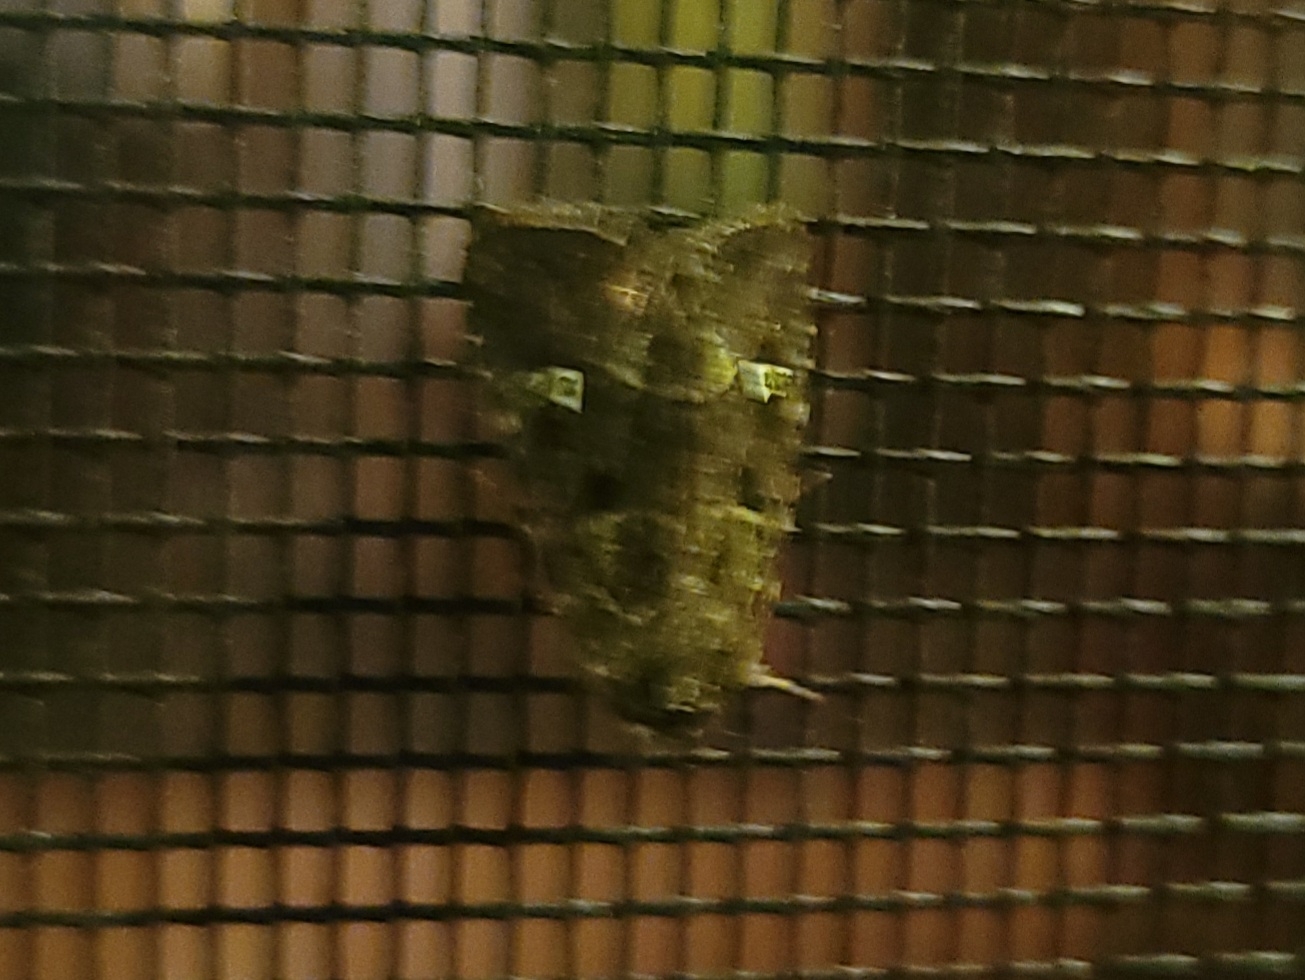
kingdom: Animalia
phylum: Arthropoda
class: Insecta
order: Lepidoptera
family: Noctuidae
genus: Lacinipolia
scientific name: Lacinipolia renigera
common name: Kidney-spotted minor
